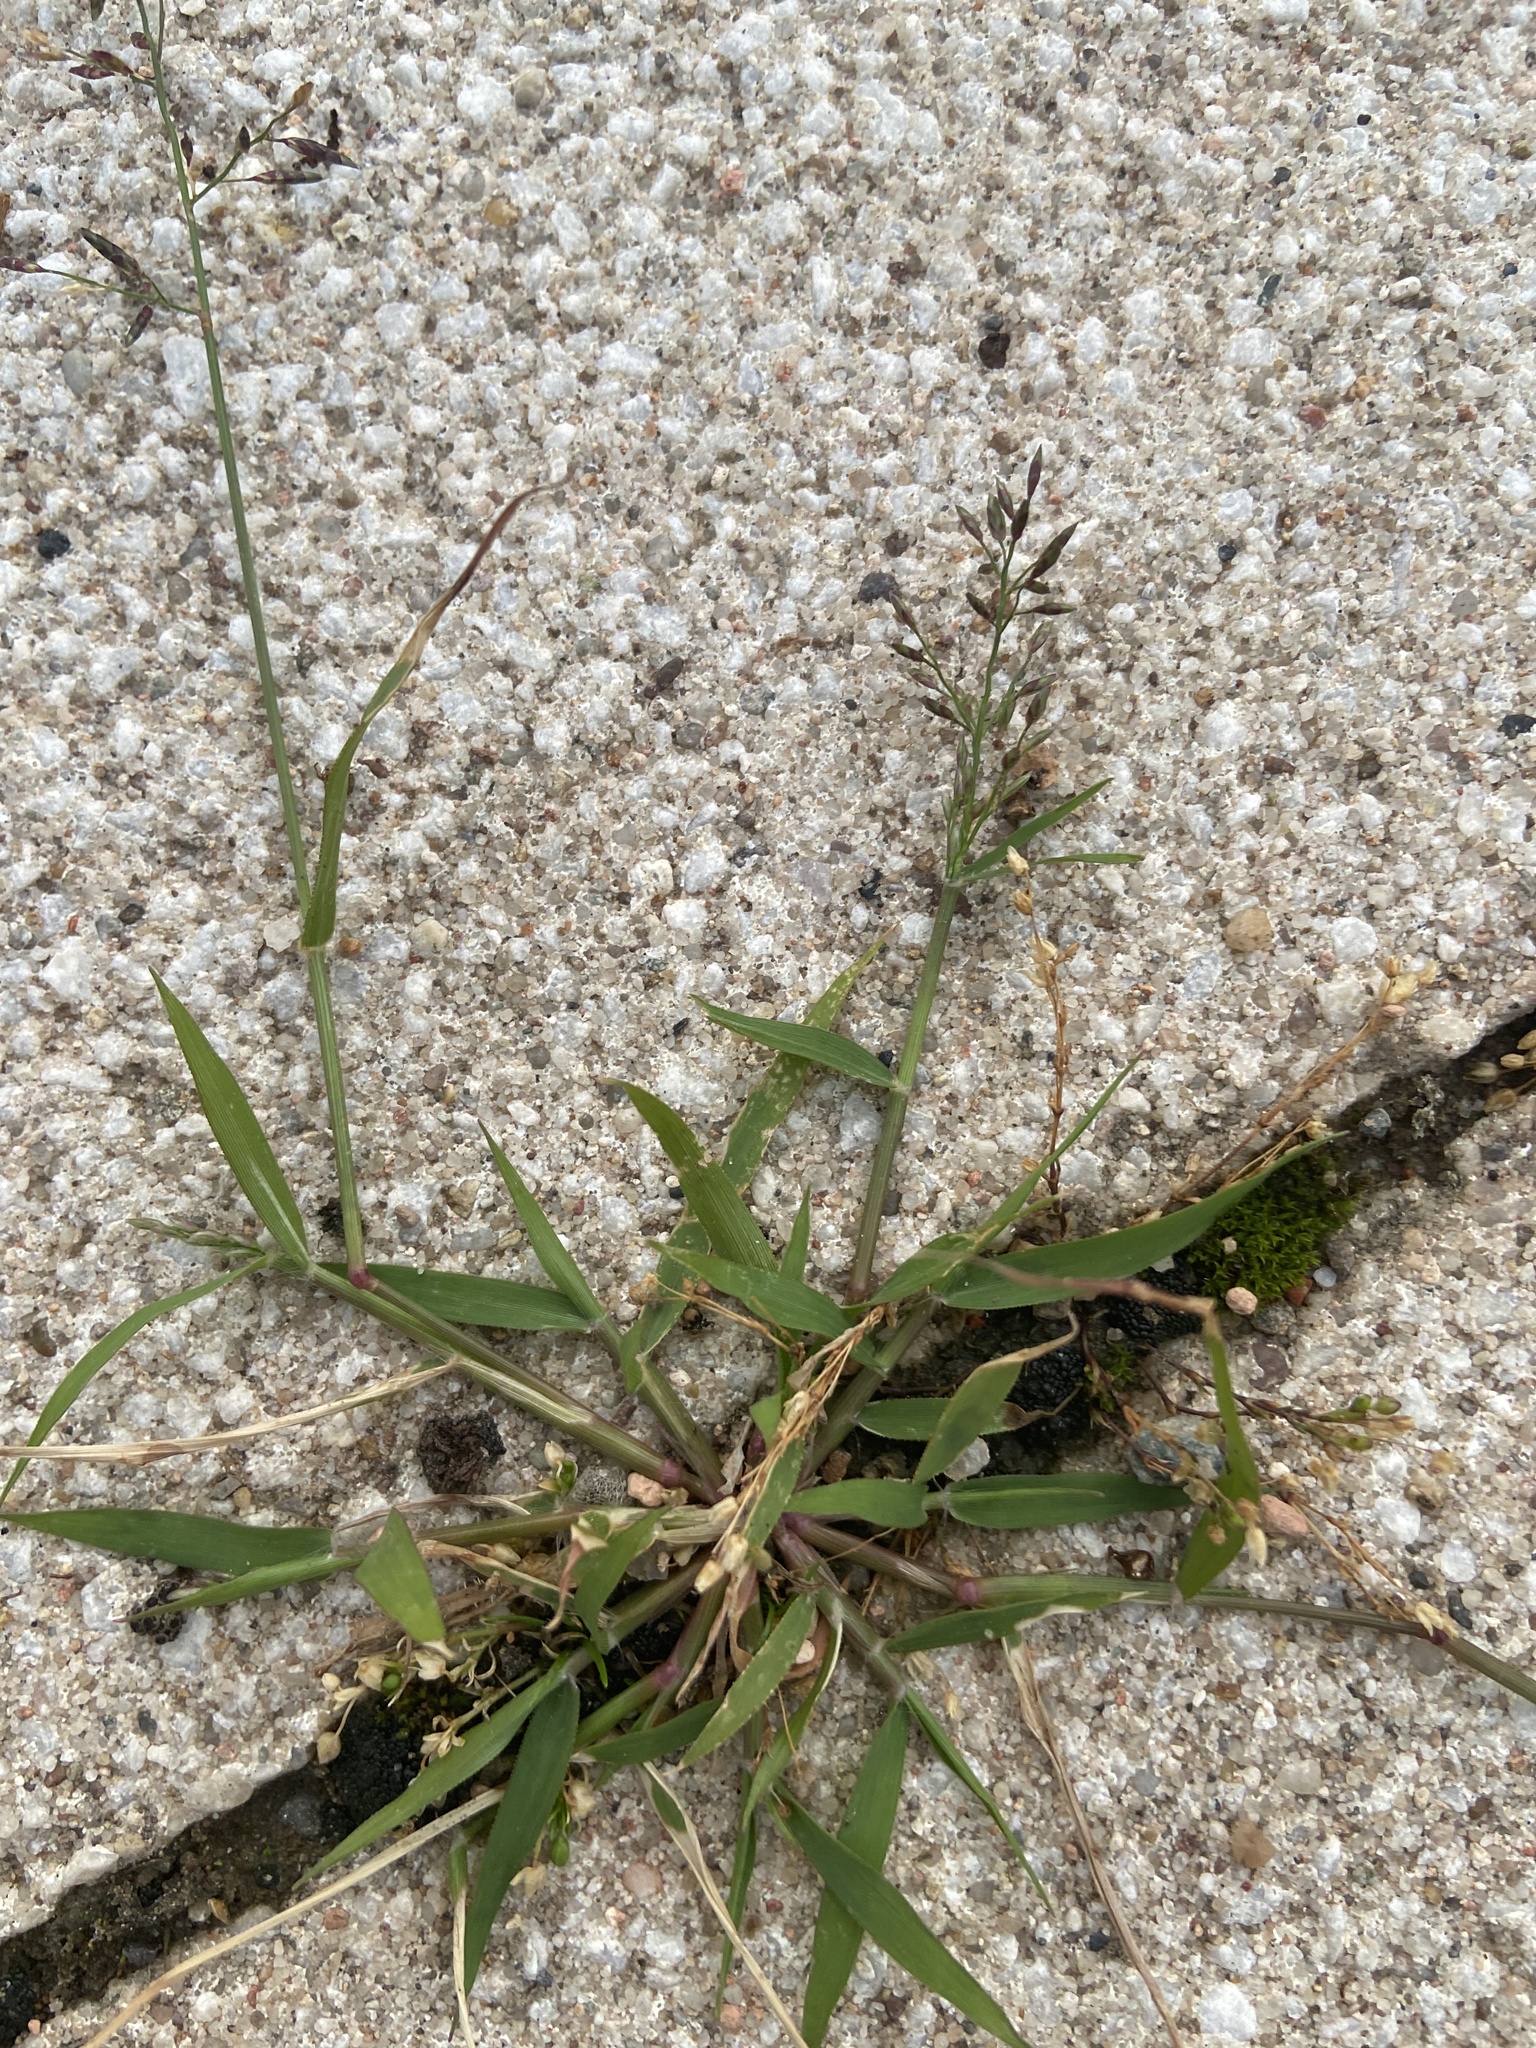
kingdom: Plantae
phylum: Tracheophyta
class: Liliopsida
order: Poales
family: Poaceae
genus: Eragrostis
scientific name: Eragrostis minor
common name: Small love-grass
